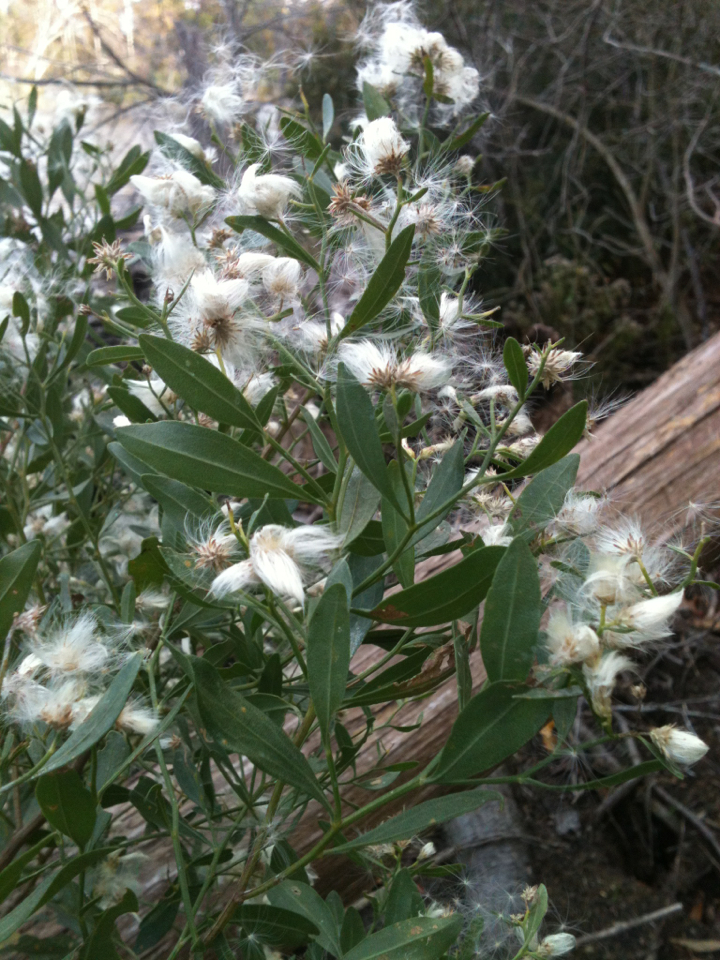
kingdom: Plantae
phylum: Tracheophyta
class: Magnoliopsida
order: Asterales
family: Asteraceae
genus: Baccharis
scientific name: Baccharis halimifolia
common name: Eastern baccharis
